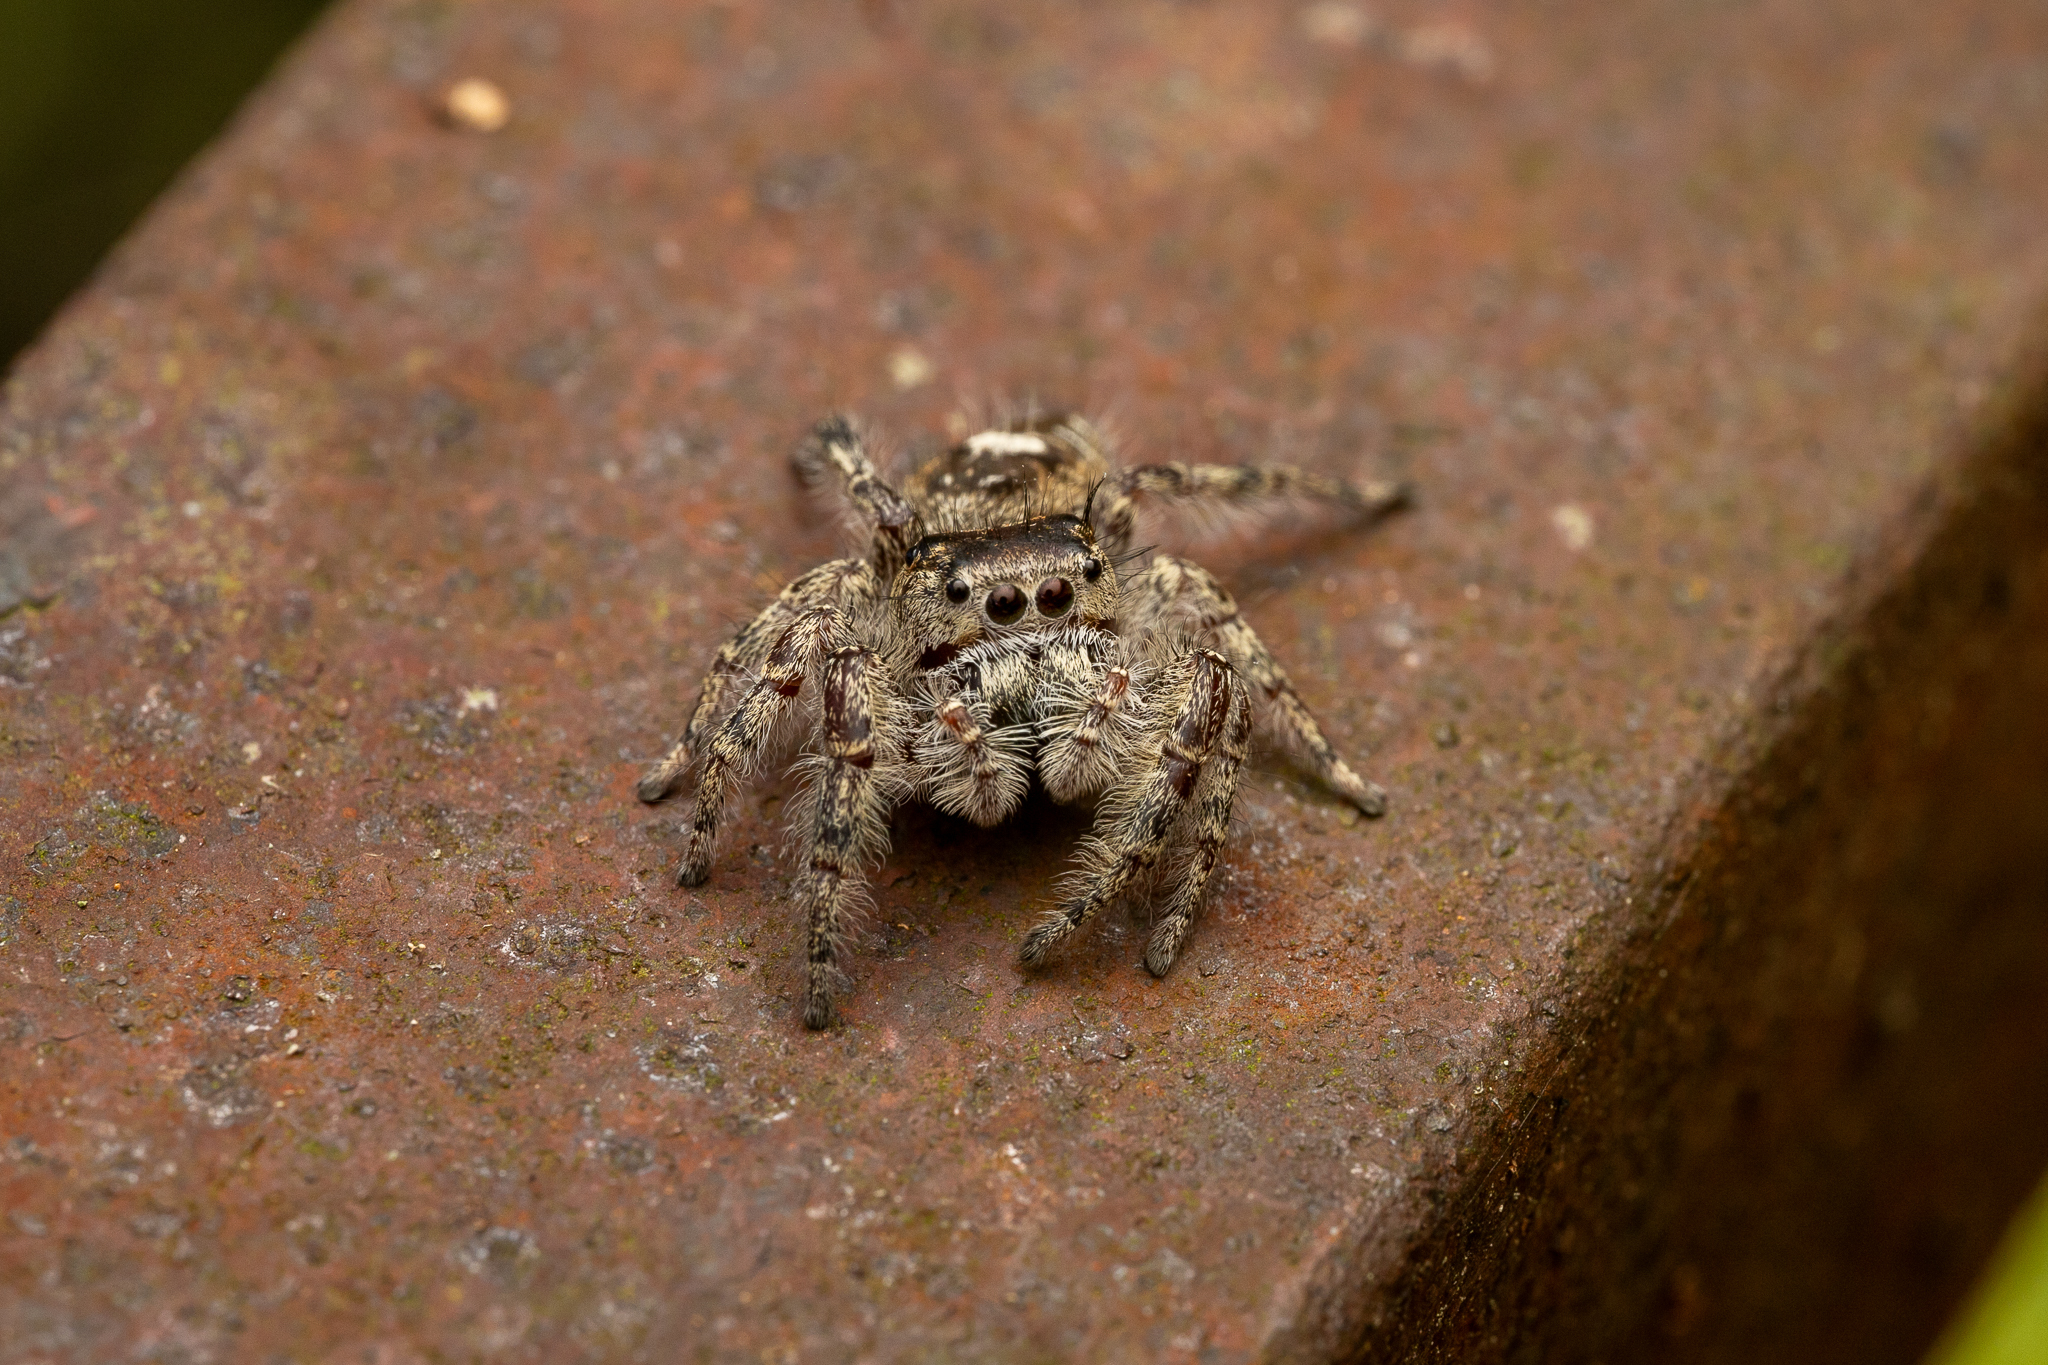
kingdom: Animalia
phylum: Arthropoda
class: Arachnida
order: Araneae
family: Salticidae
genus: Phidippus
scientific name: Phidippus putnami
